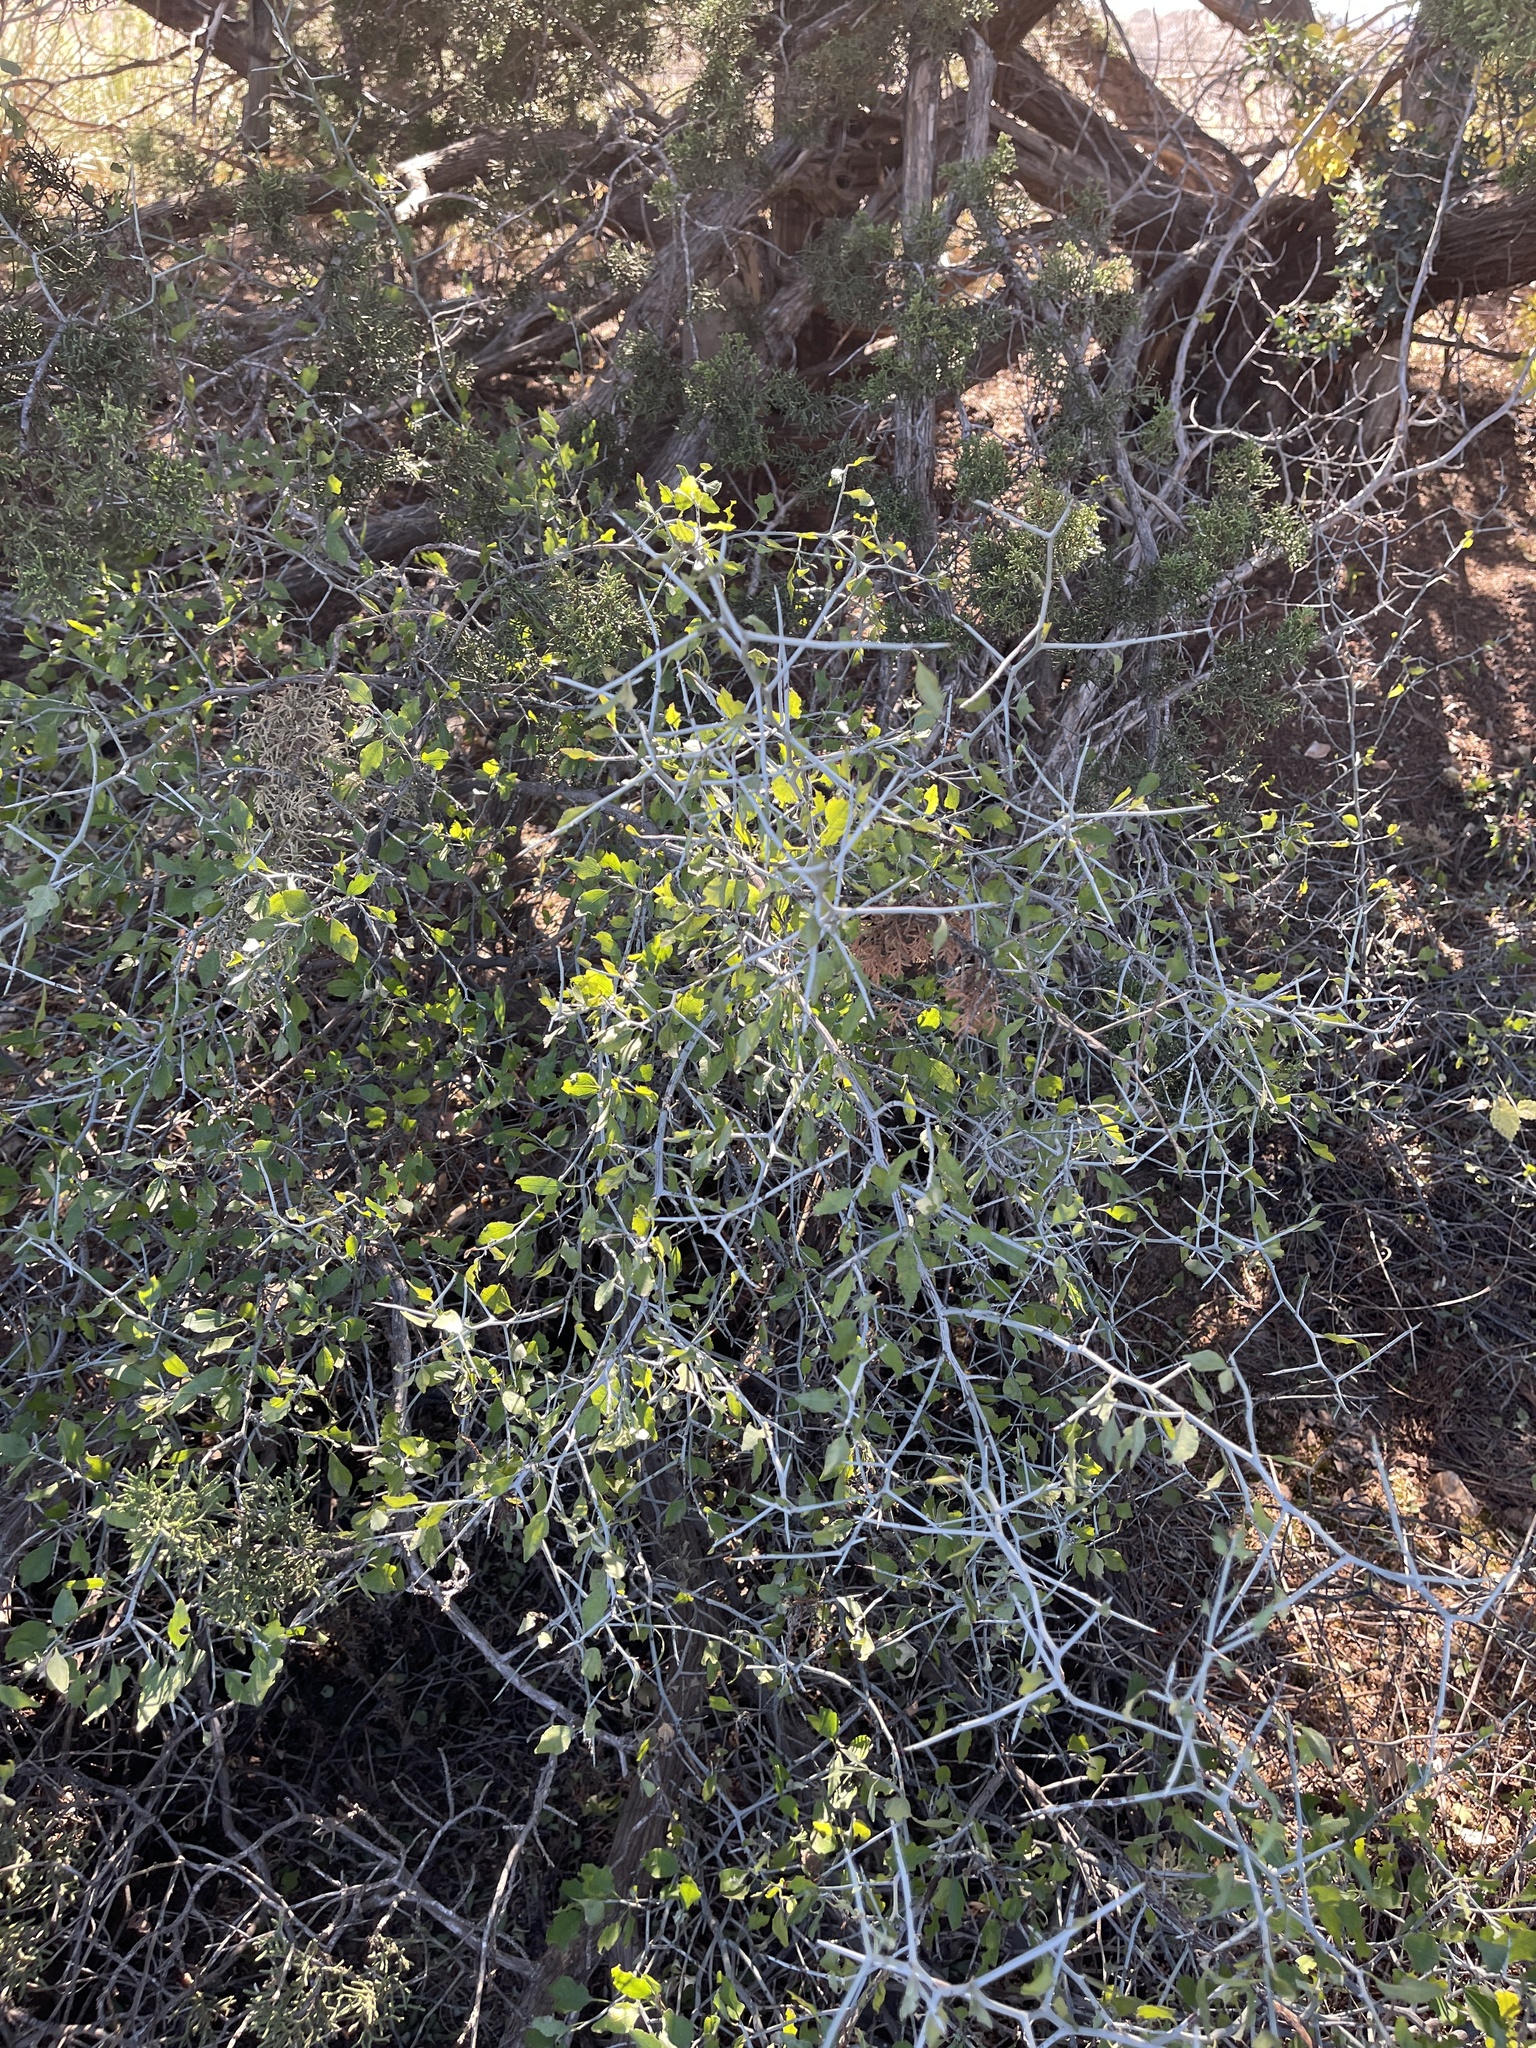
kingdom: Plantae
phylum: Tracheophyta
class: Magnoliopsida
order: Rosales
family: Rhamnaceae
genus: Sarcomphalus
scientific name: Sarcomphalus obtusifolius
